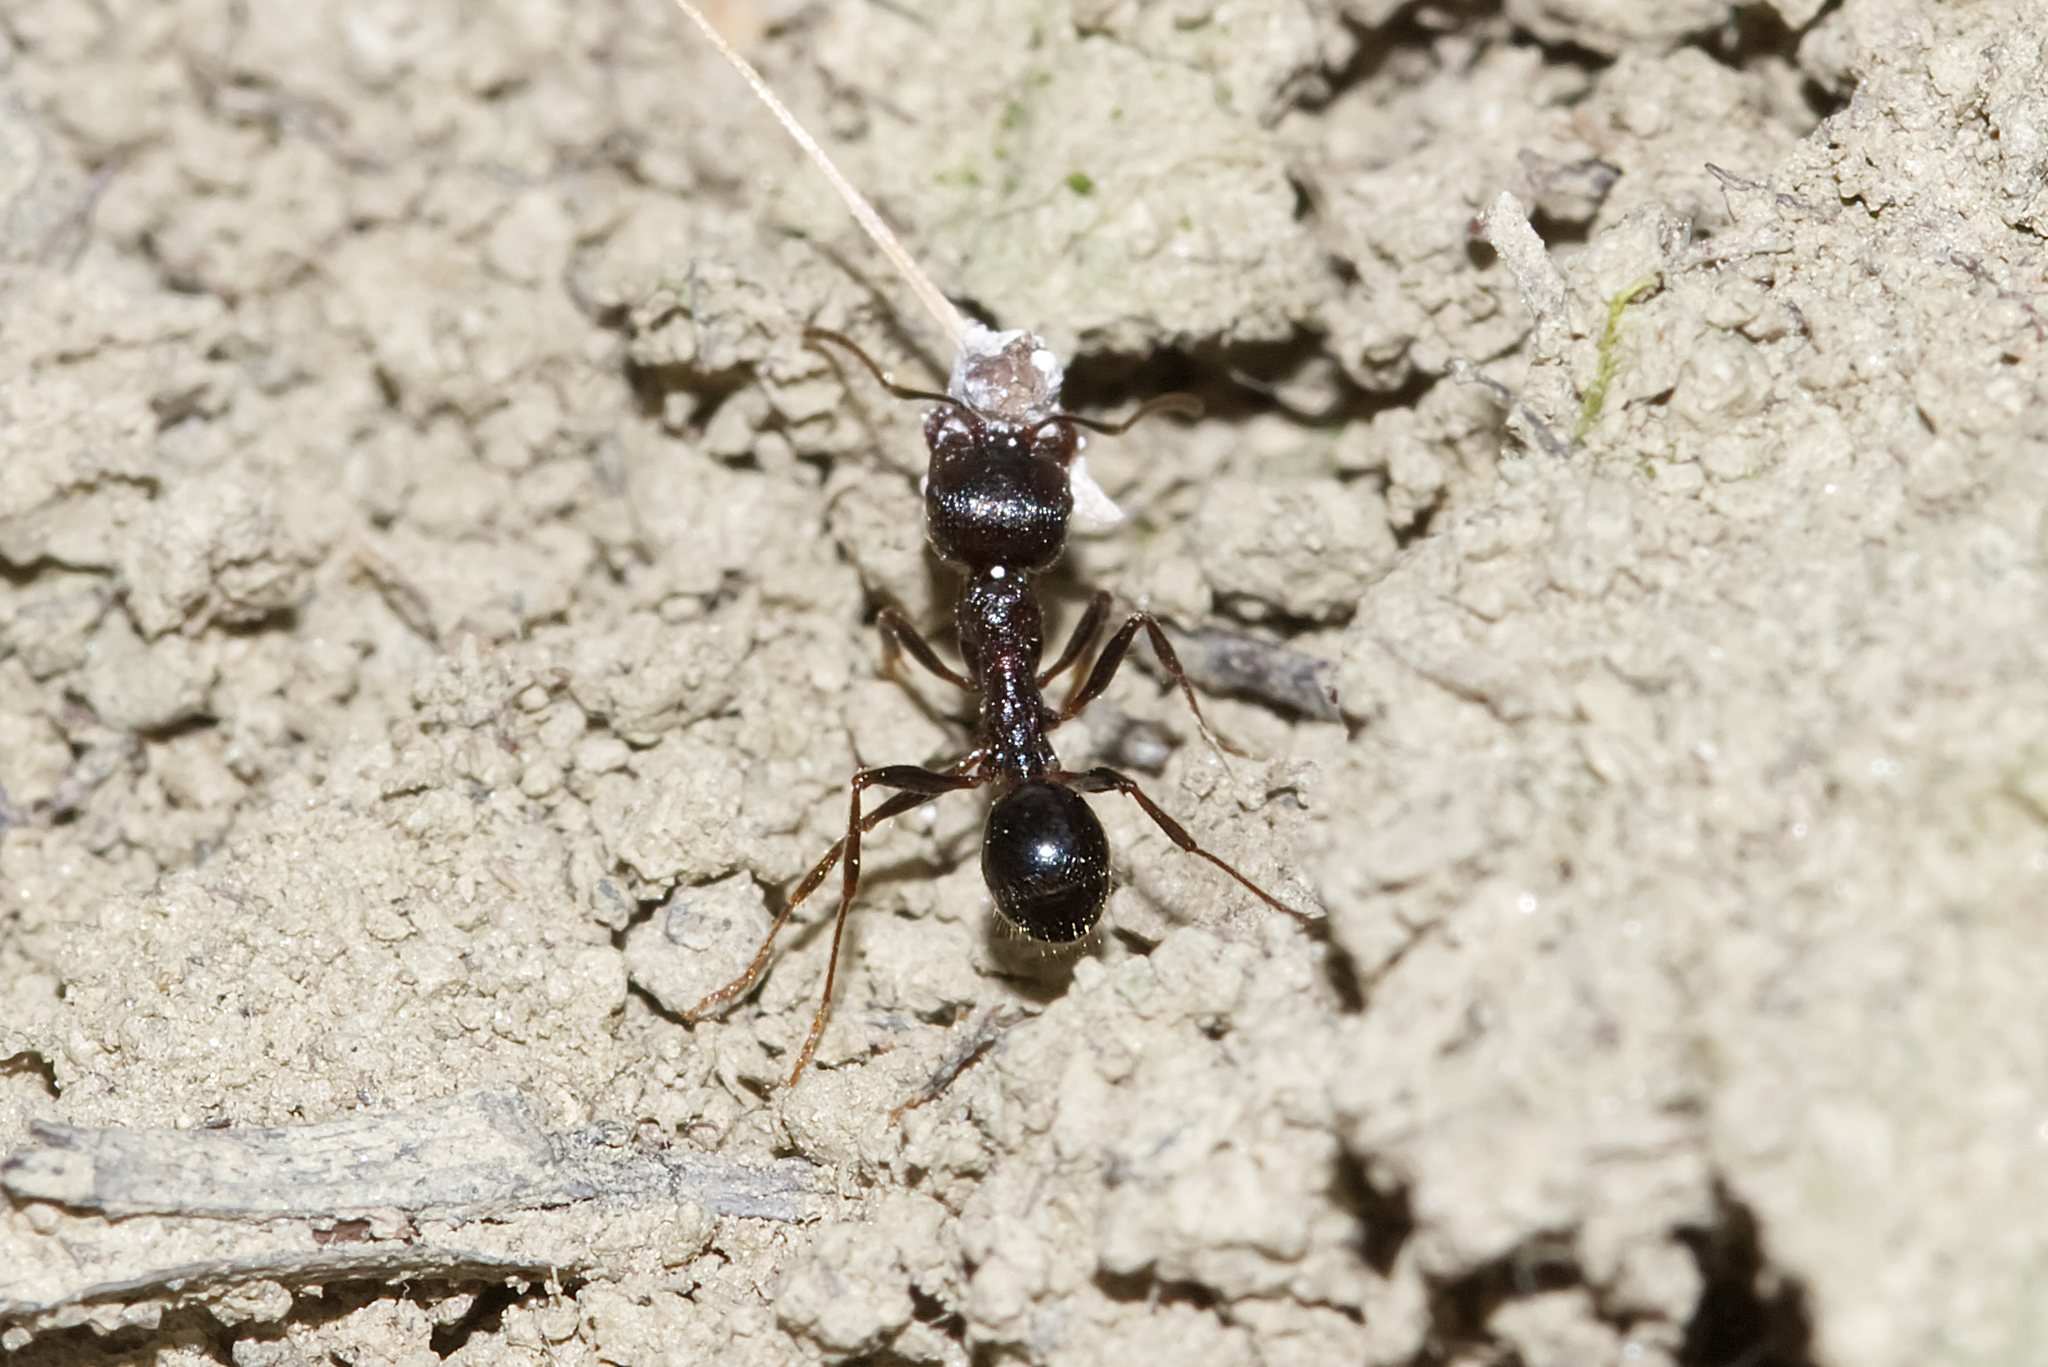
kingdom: Animalia
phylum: Arthropoda
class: Insecta
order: Hymenoptera
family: Formicidae
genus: Messor
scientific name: Messor structor
